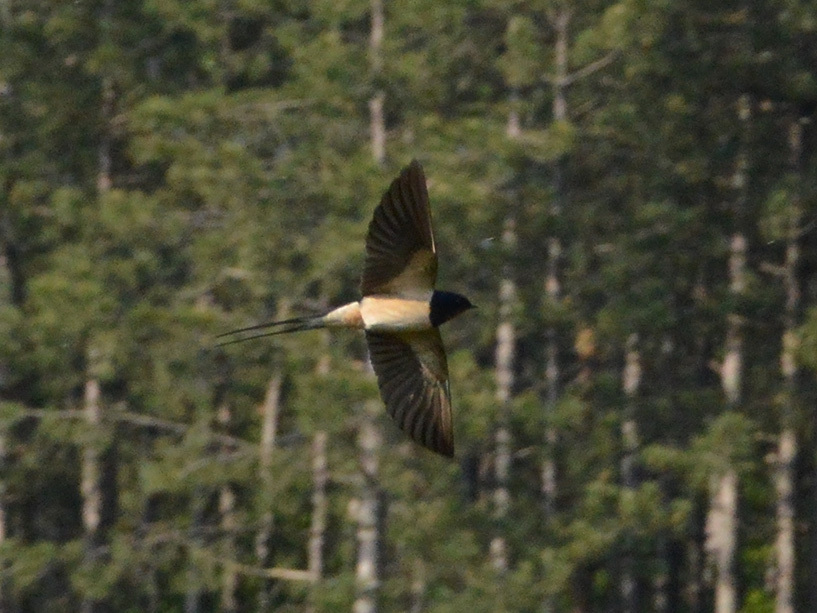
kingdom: Animalia
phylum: Chordata
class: Aves
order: Passeriformes
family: Hirundinidae
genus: Hirundo
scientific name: Hirundo rustica
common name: Barn swallow
